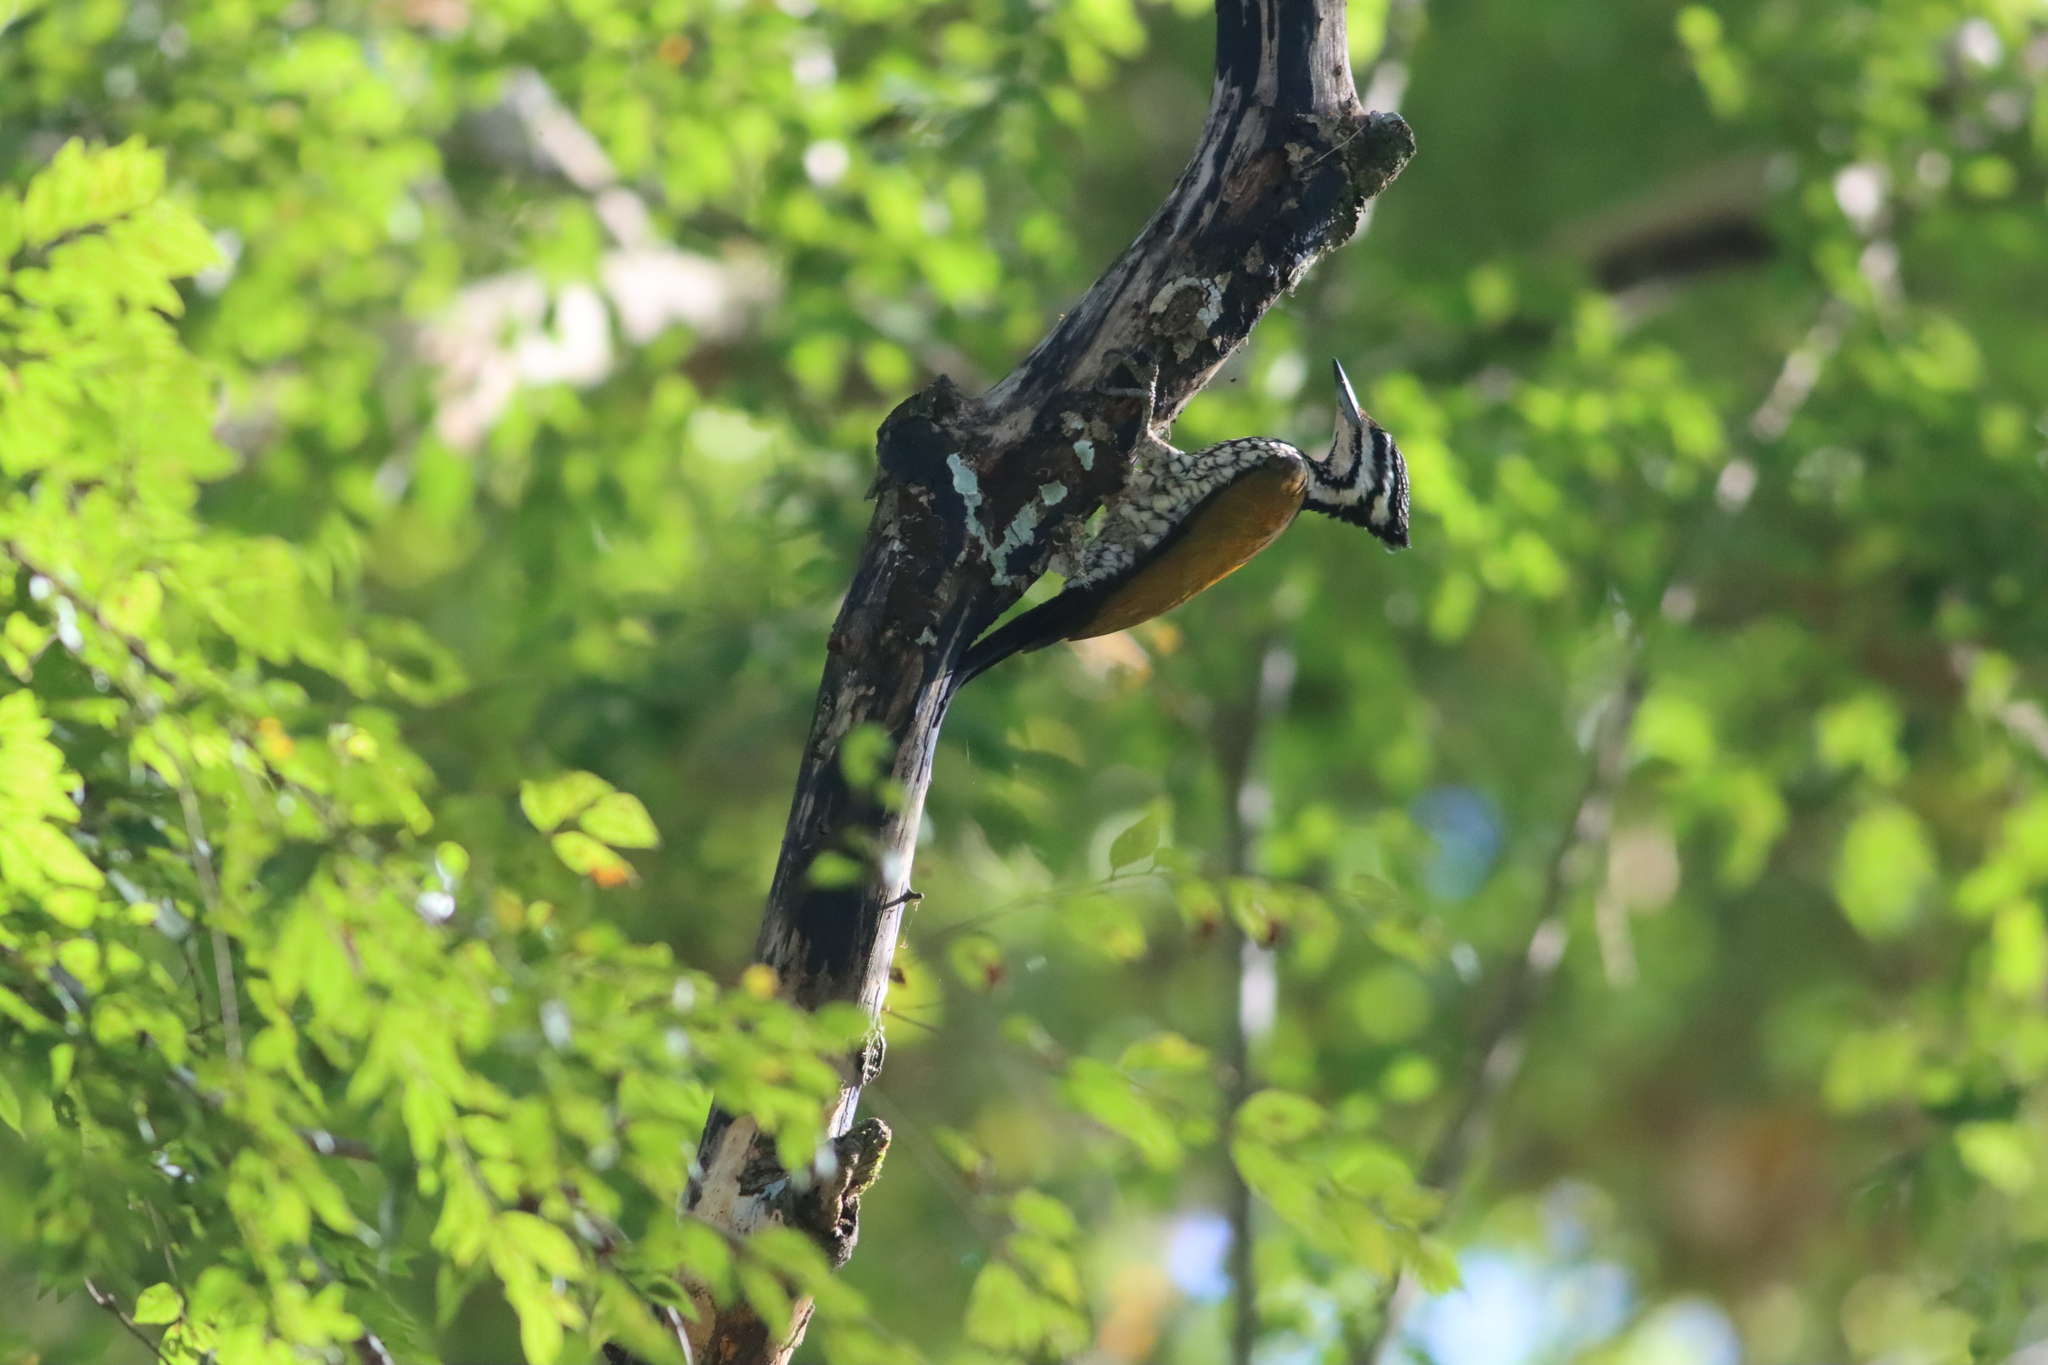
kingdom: Animalia
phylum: Chordata
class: Aves
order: Piciformes
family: Picidae
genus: Dinopium
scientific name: Dinopium javanense
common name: Common flameback
